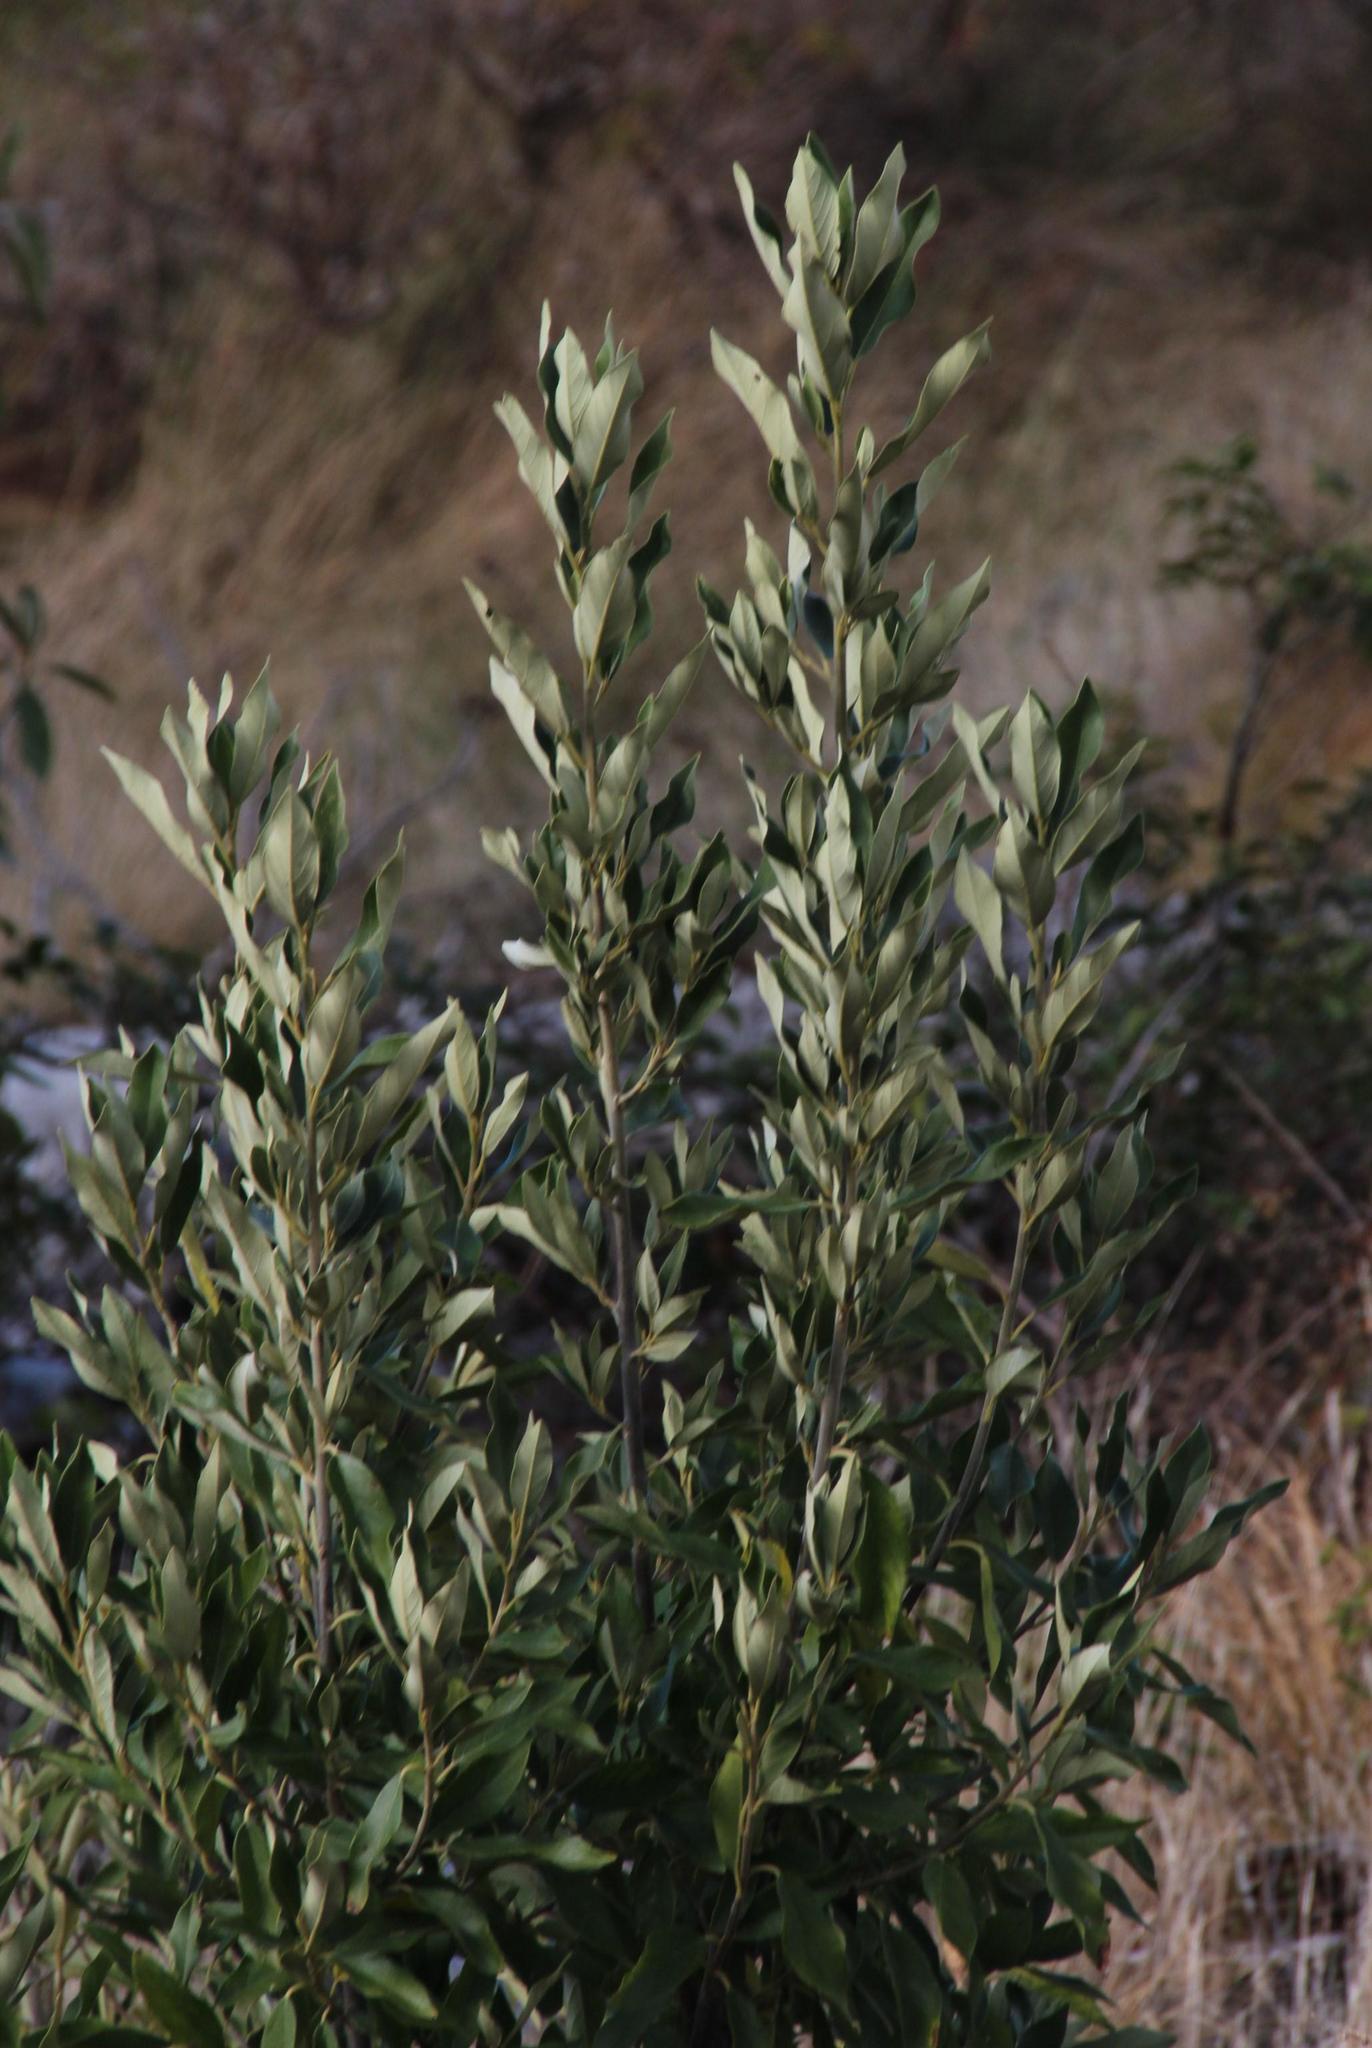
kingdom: Plantae
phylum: Tracheophyta
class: Magnoliopsida
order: Malpighiales
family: Achariaceae
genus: Kiggelaria
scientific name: Kiggelaria africana
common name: Wild peach
